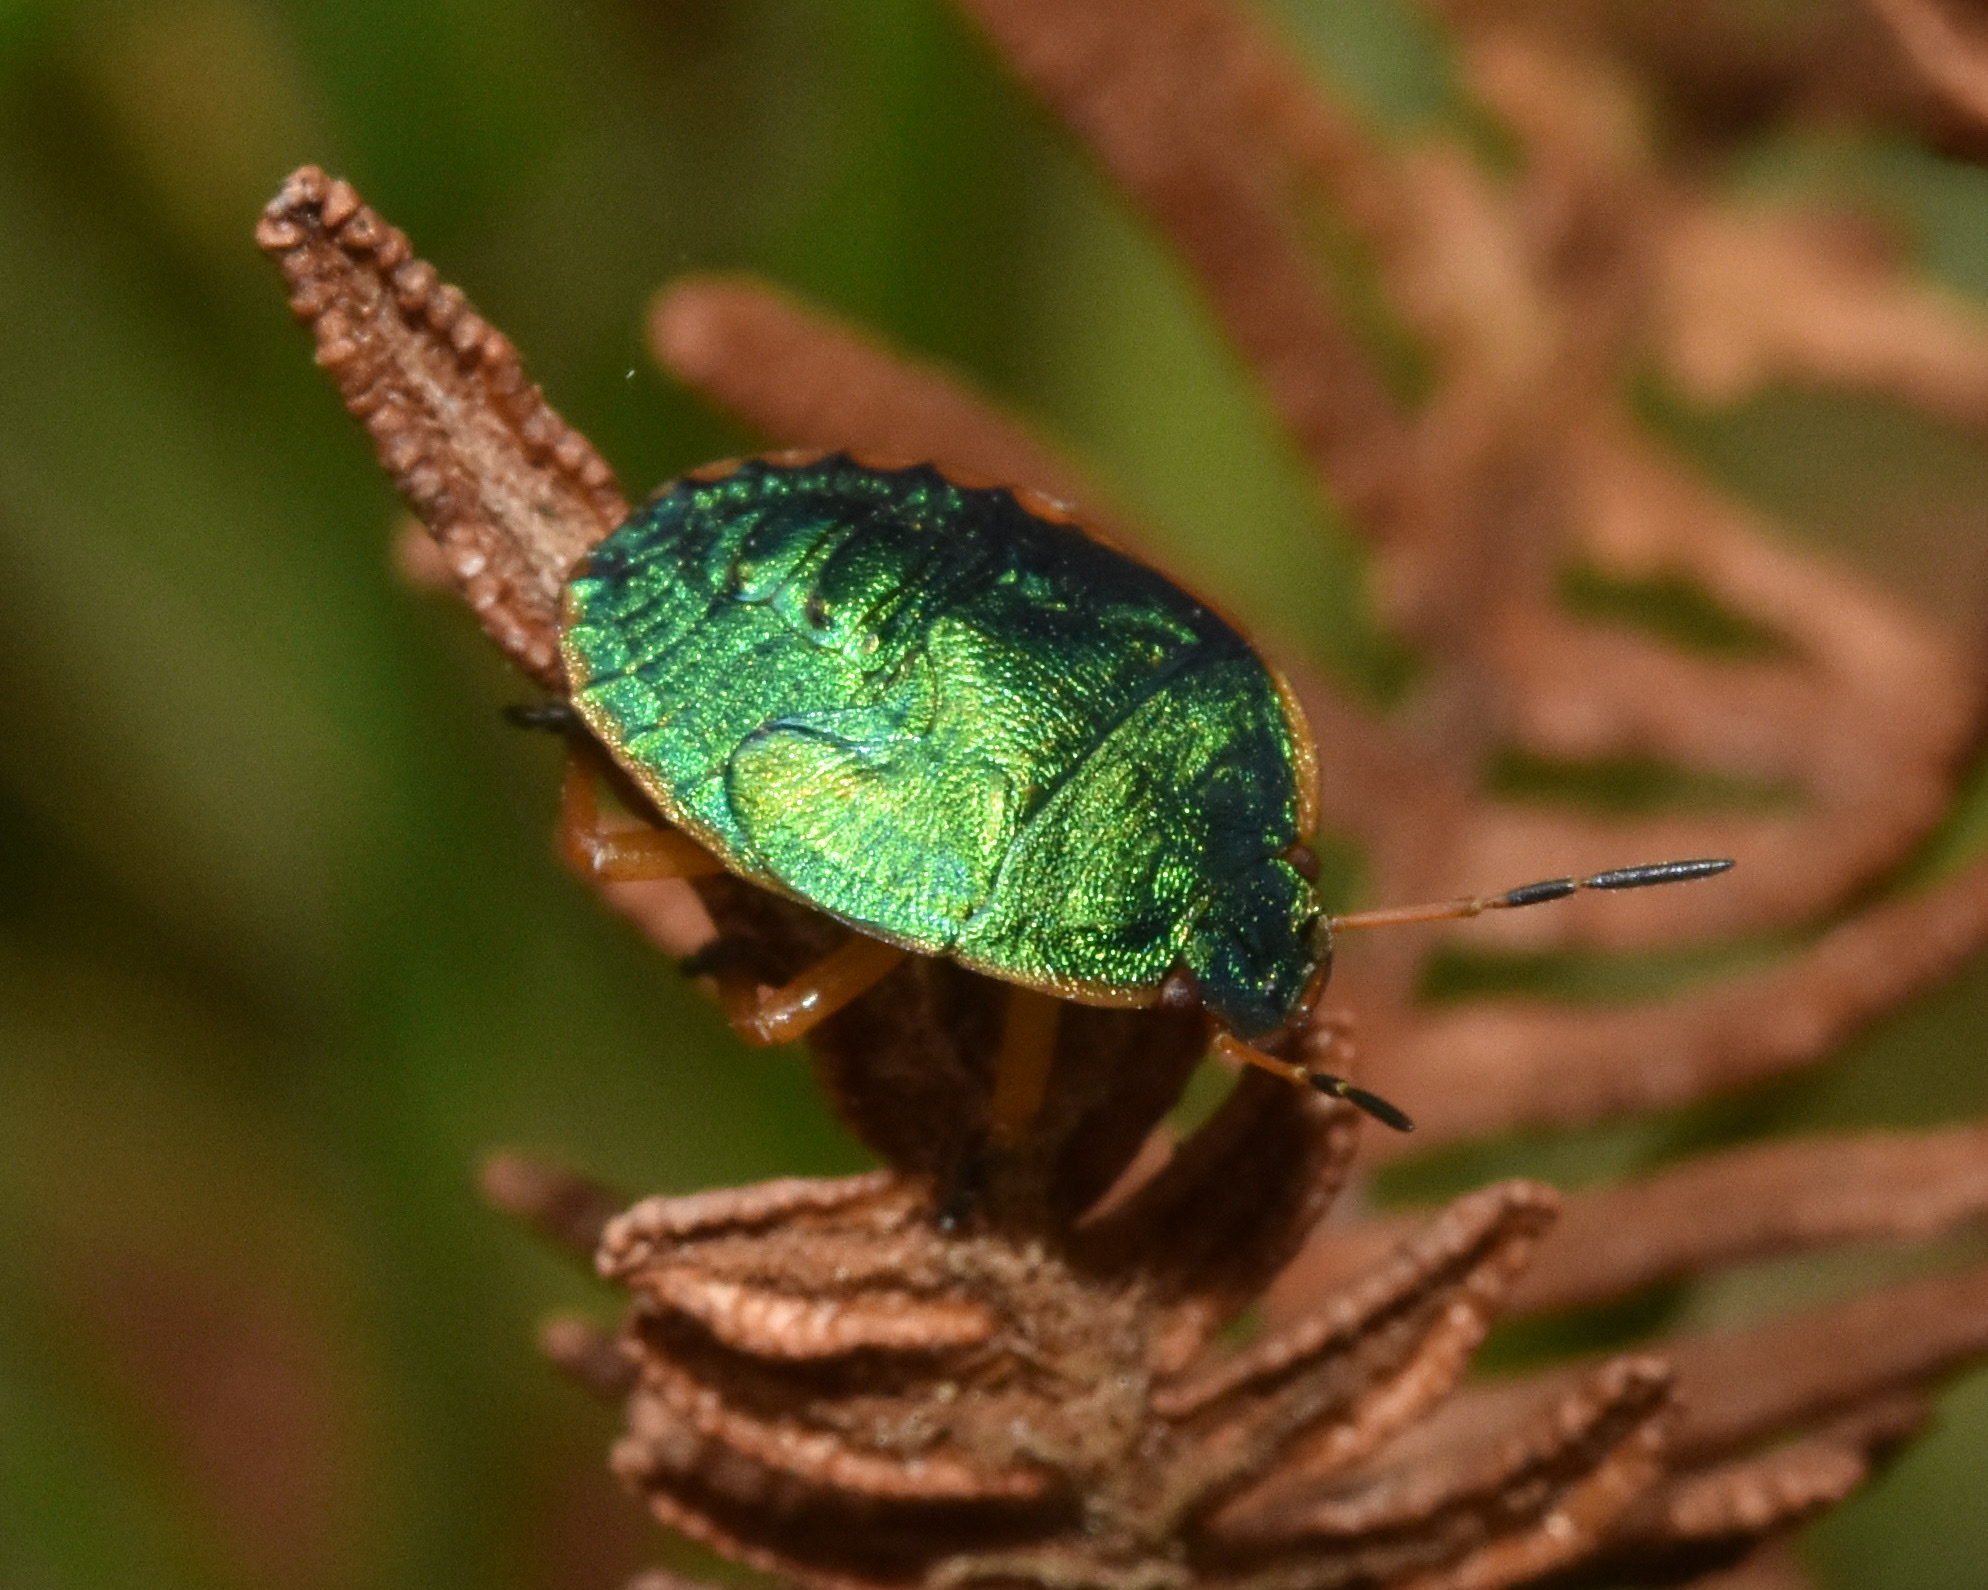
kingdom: Animalia
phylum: Arthropoda
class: Insecta
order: Hemiptera
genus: Erachtheus
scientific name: Erachtheus
